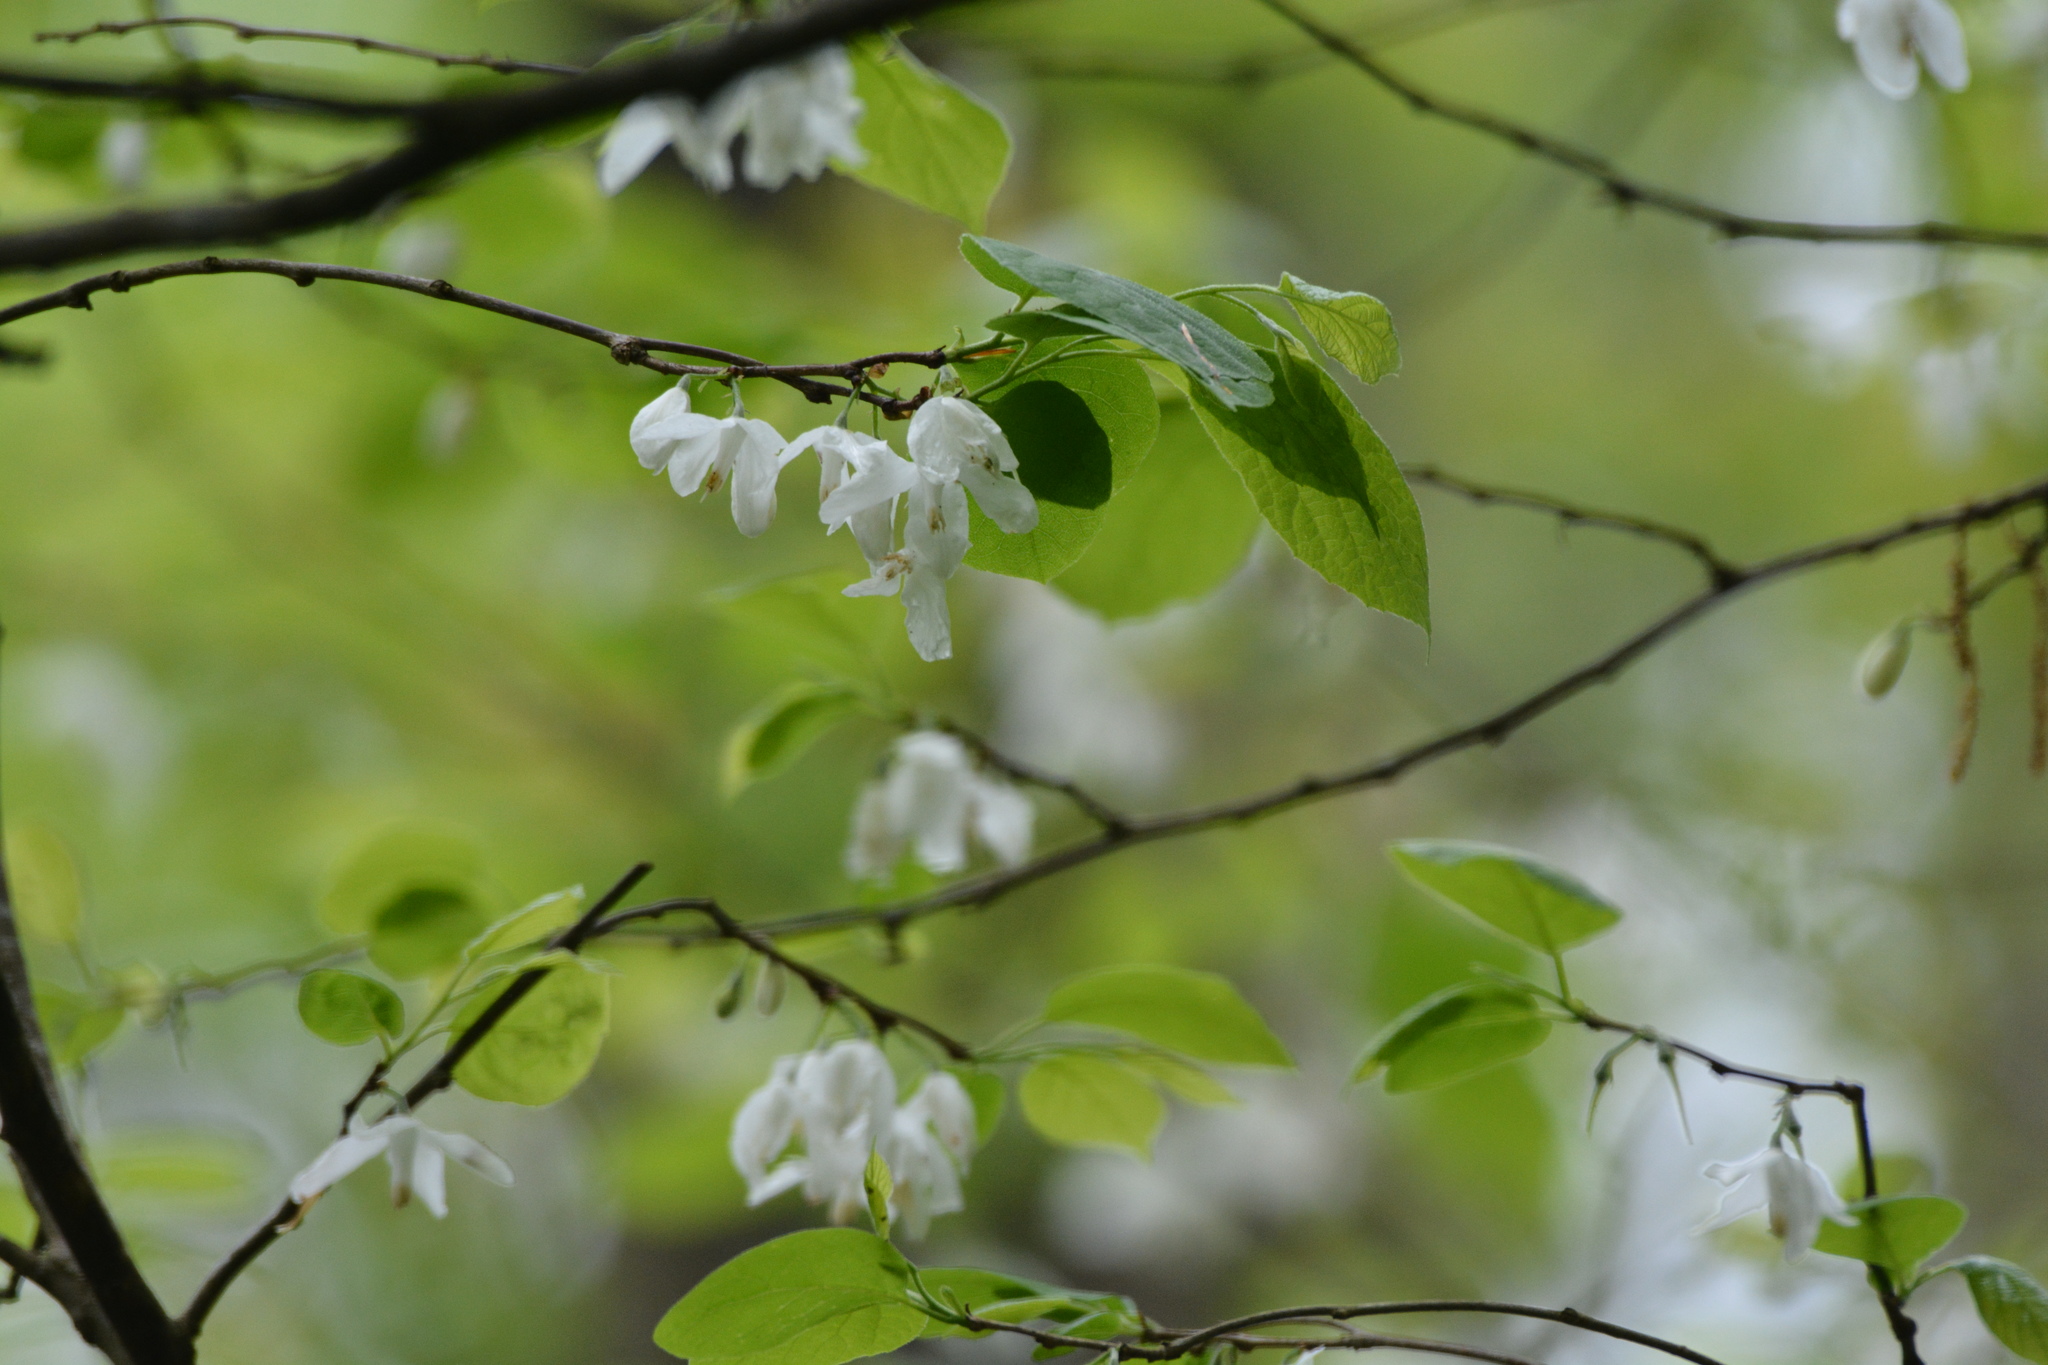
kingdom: Plantae
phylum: Tracheophyta
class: Magnoliopsida
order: Ericales
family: Styracaceae
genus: Halesia
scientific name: Halesia diptera
